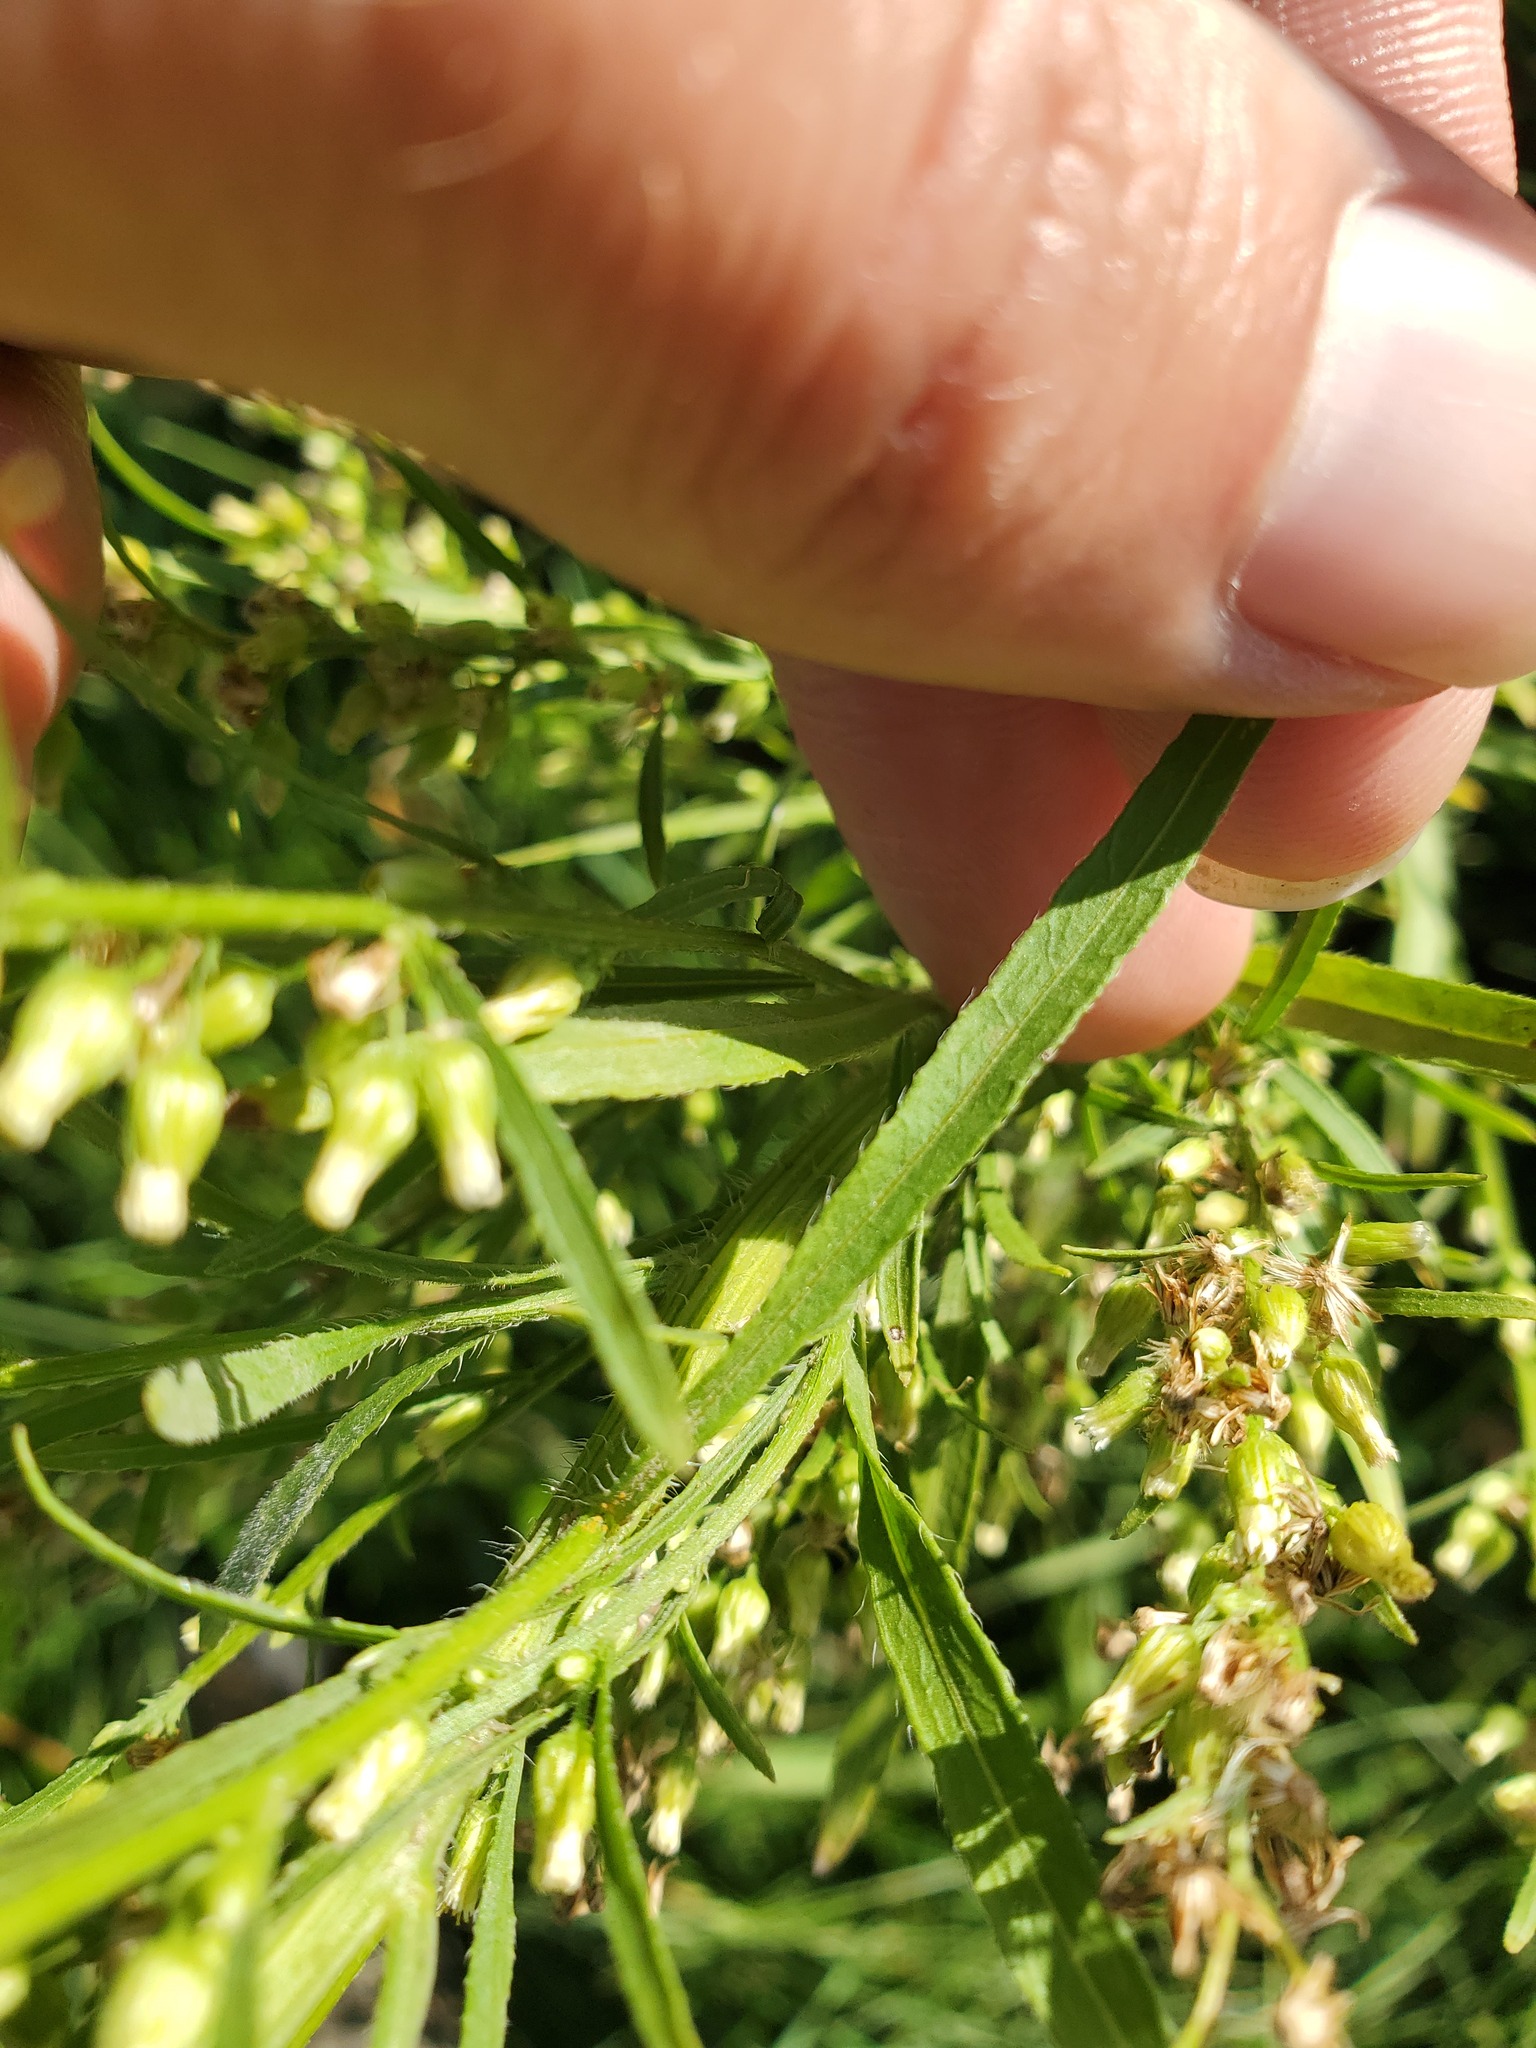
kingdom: Plantae
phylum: Tracheophyta
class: Magnoliopsida
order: Asterales
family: Asteraceae
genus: Erigeron
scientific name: Erigeron canadensis
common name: Canadian fleabane
